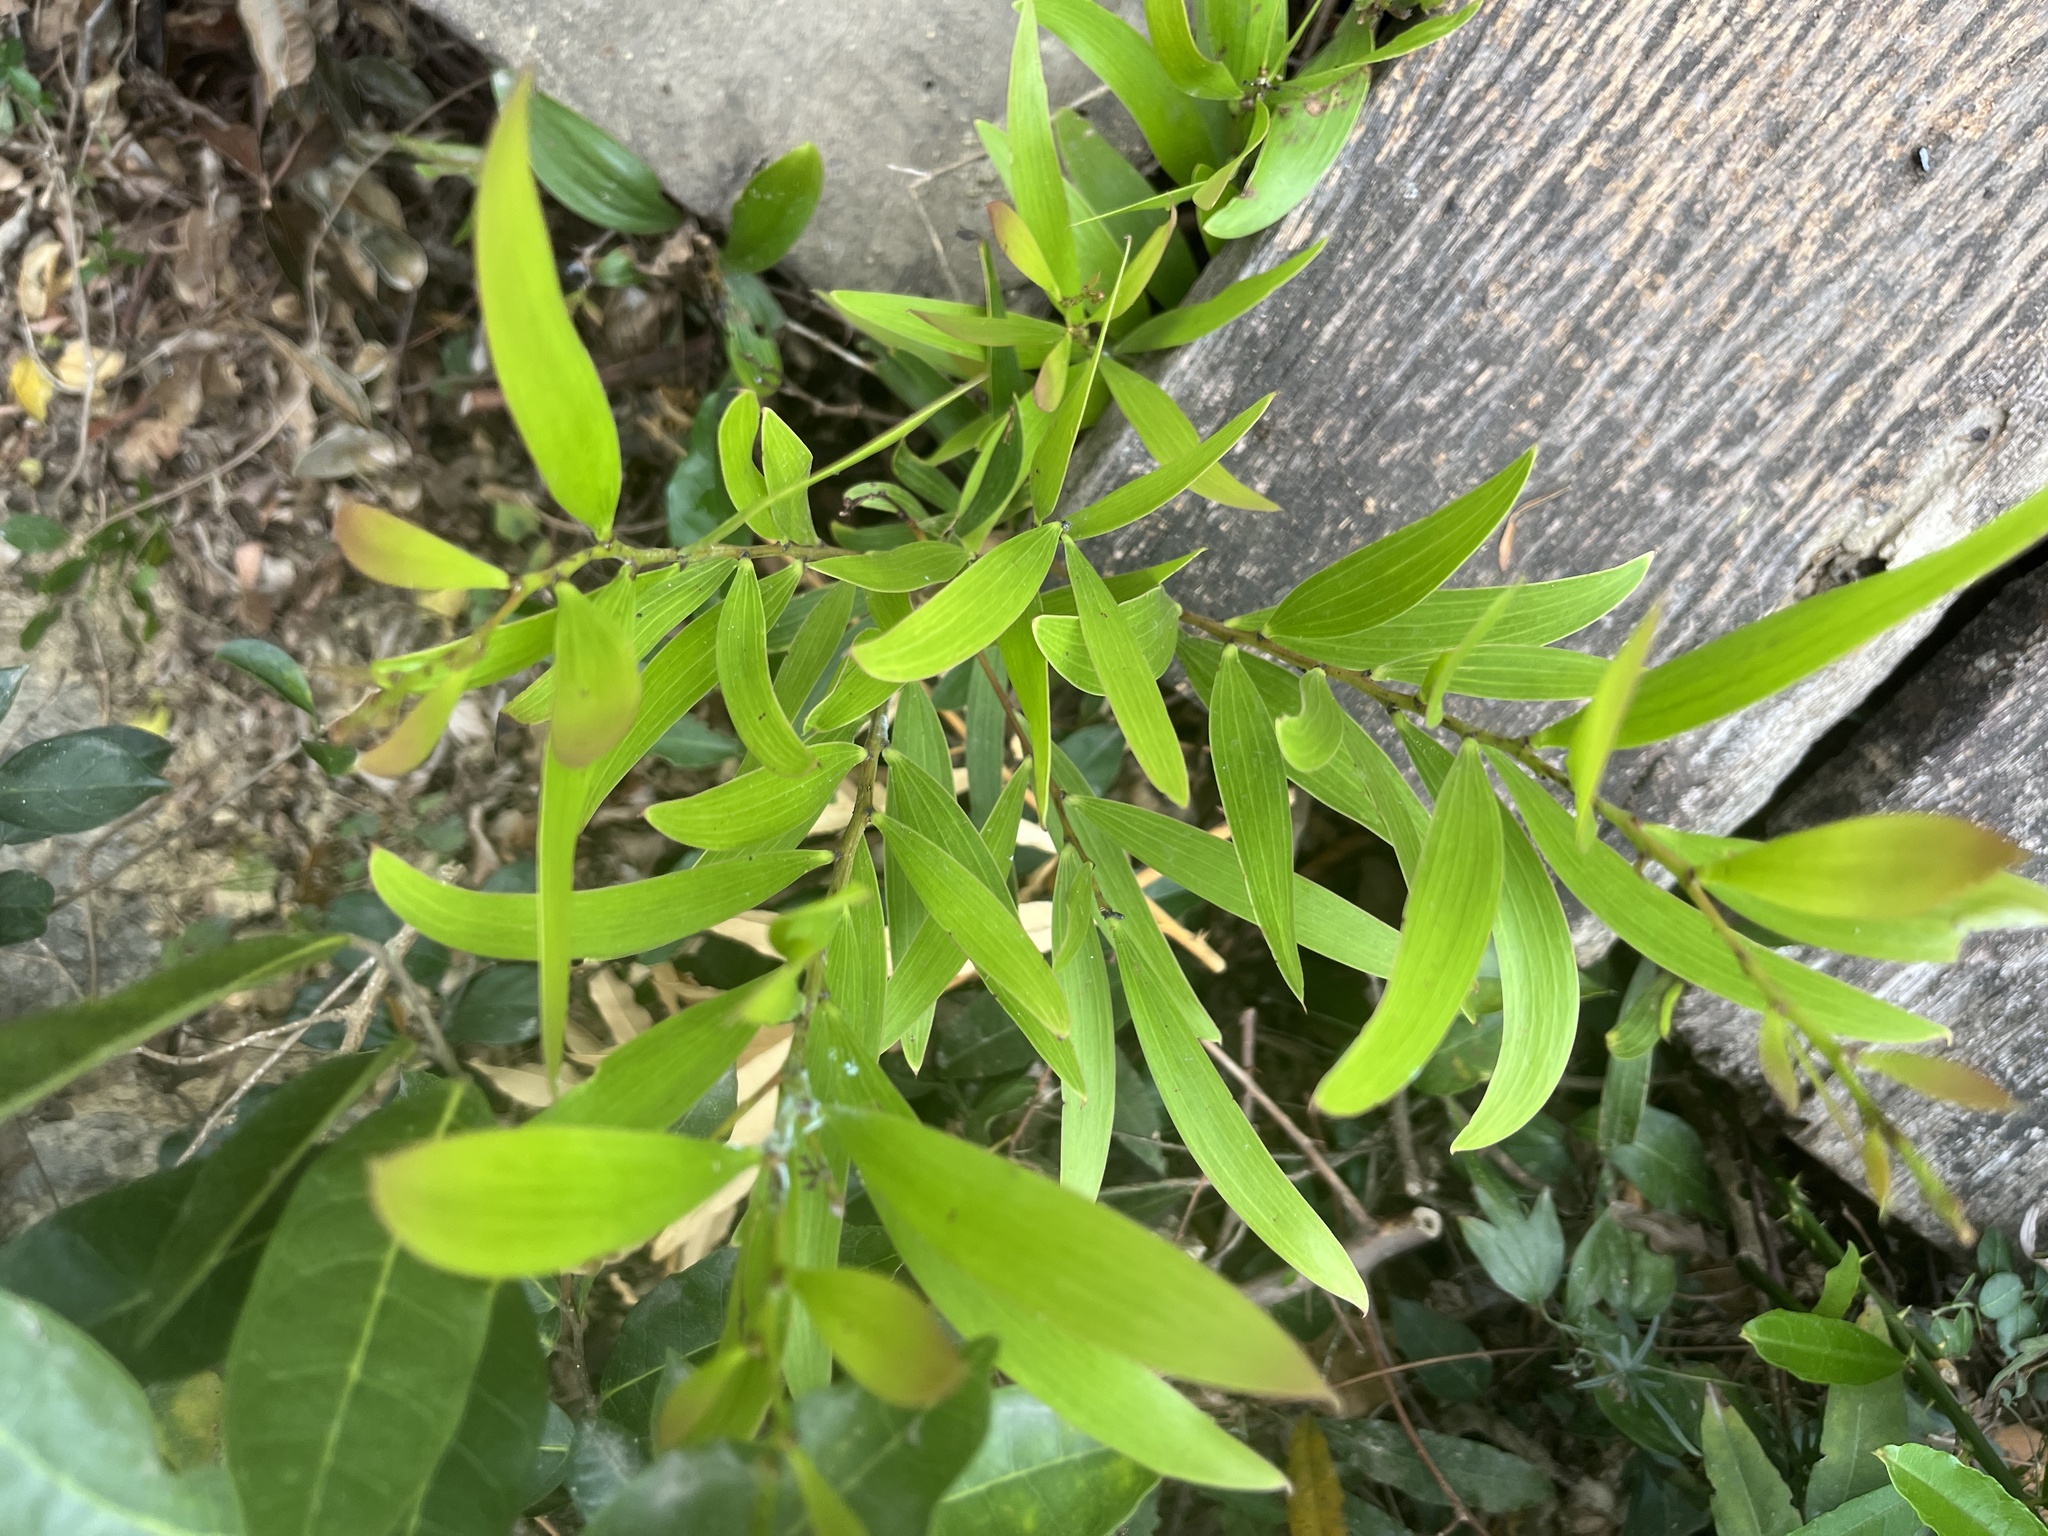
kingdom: Plantae
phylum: Tracheophyta
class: Magnoliopsida
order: Fabales
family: Fabaceae
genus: Acacia
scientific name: Acacia confusa
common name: Formosan koa
